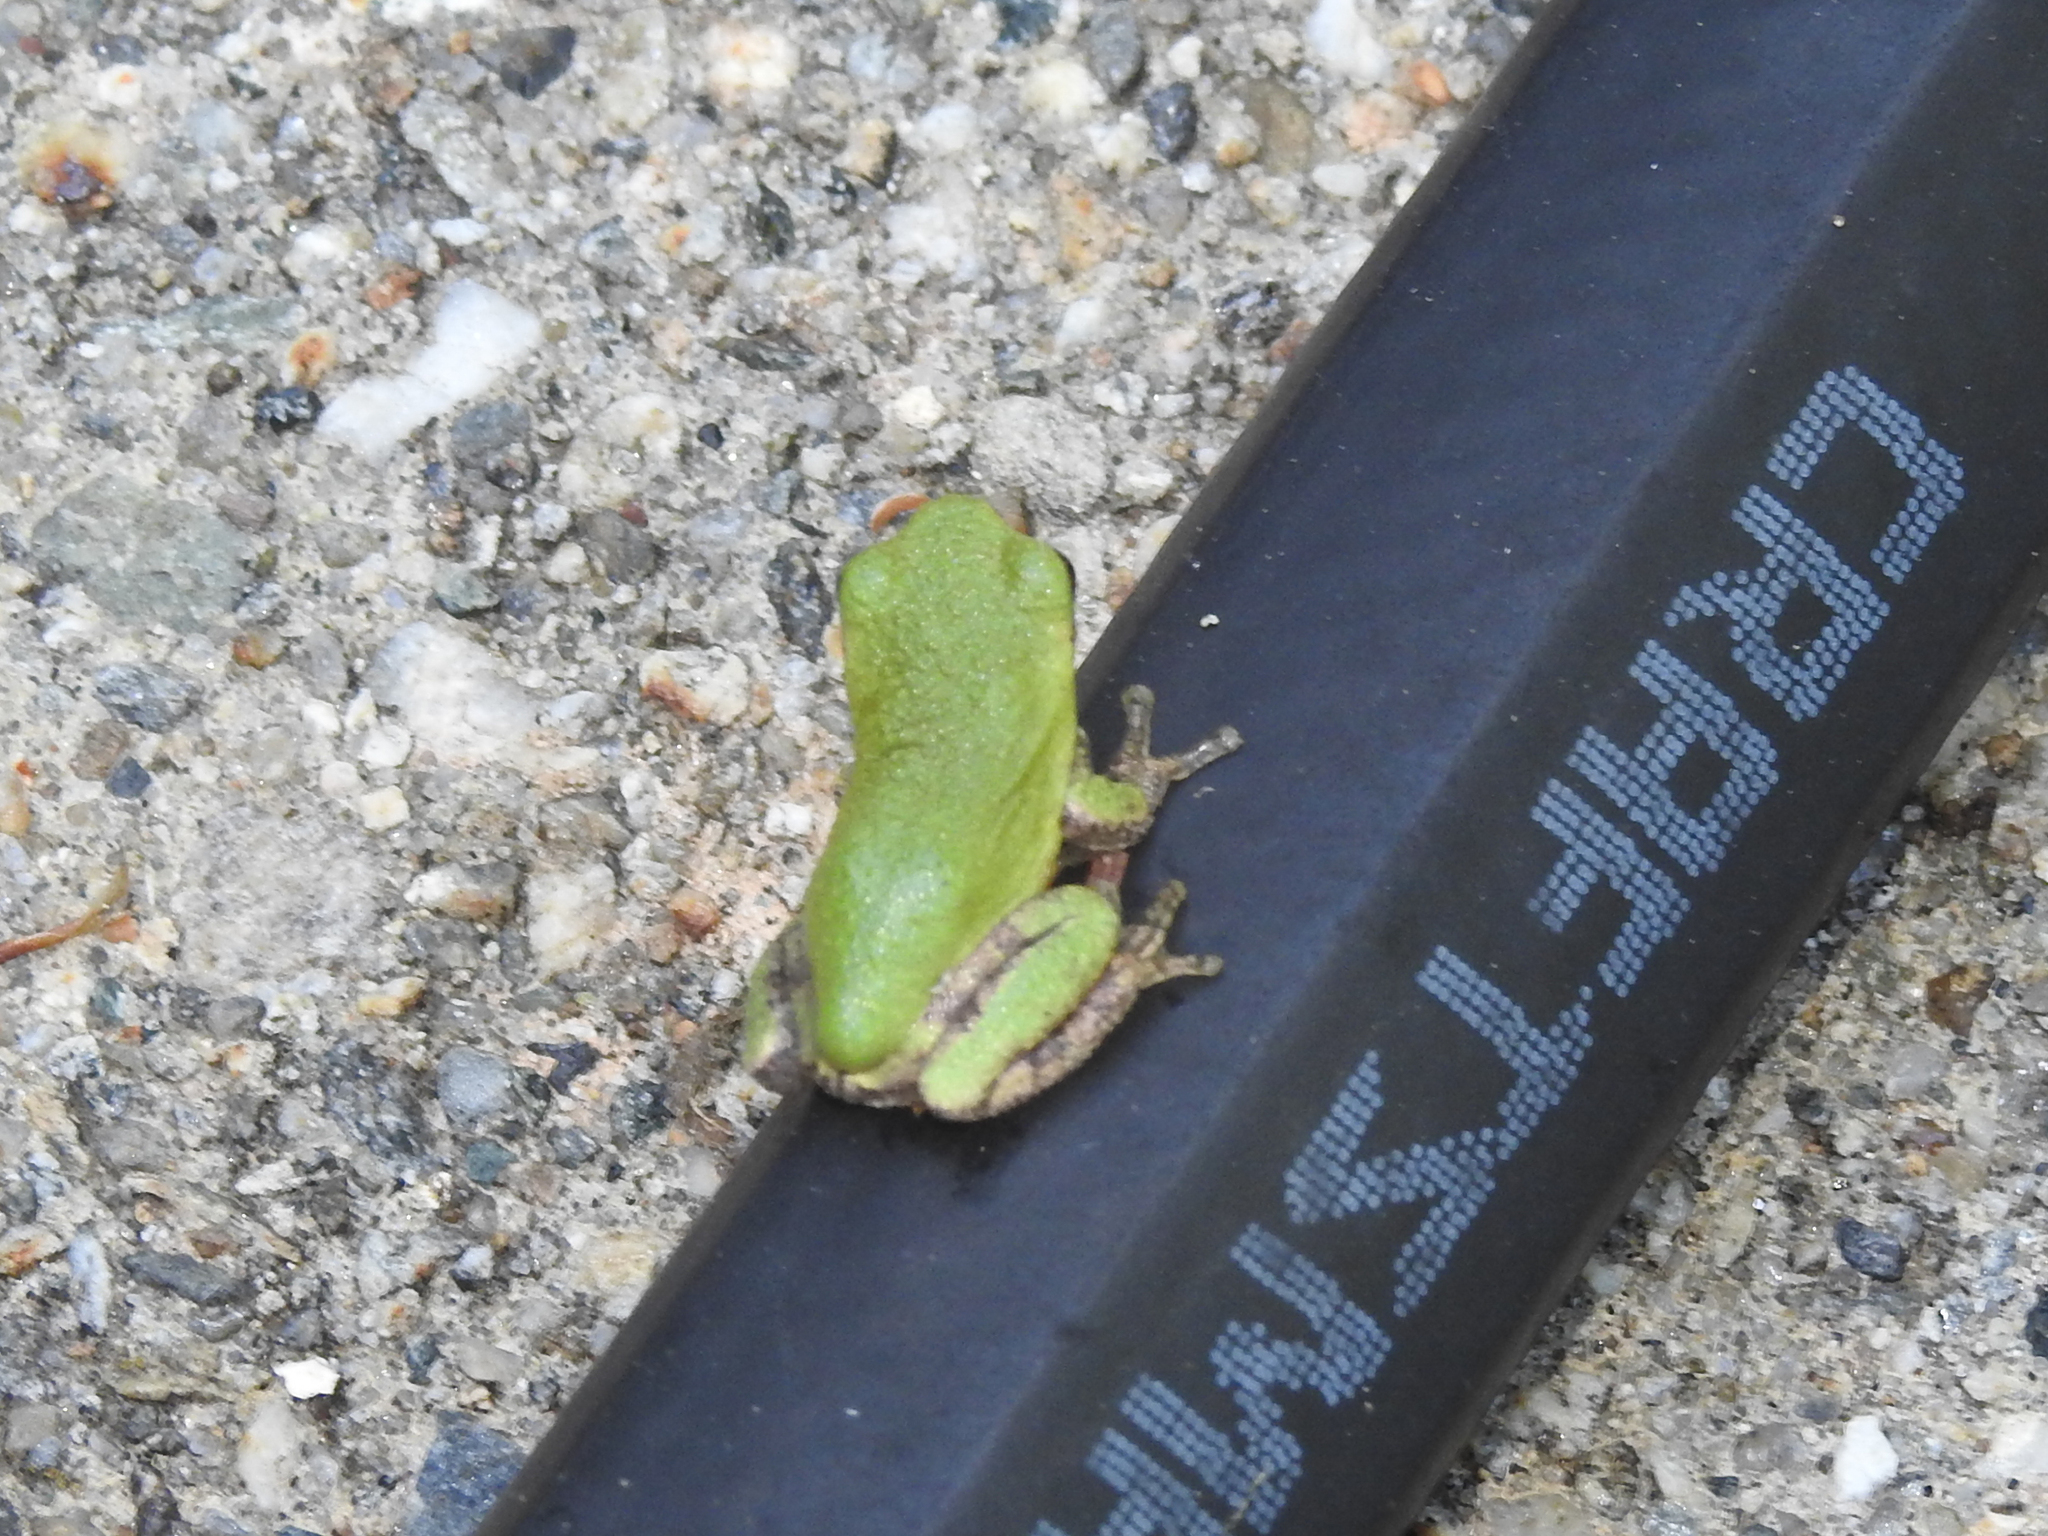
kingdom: Animalia
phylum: Chordata
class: Amphibia
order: Anura
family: Hylidae
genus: Dryophytes
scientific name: Dryophytes versicolor
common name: Gray treefrog
